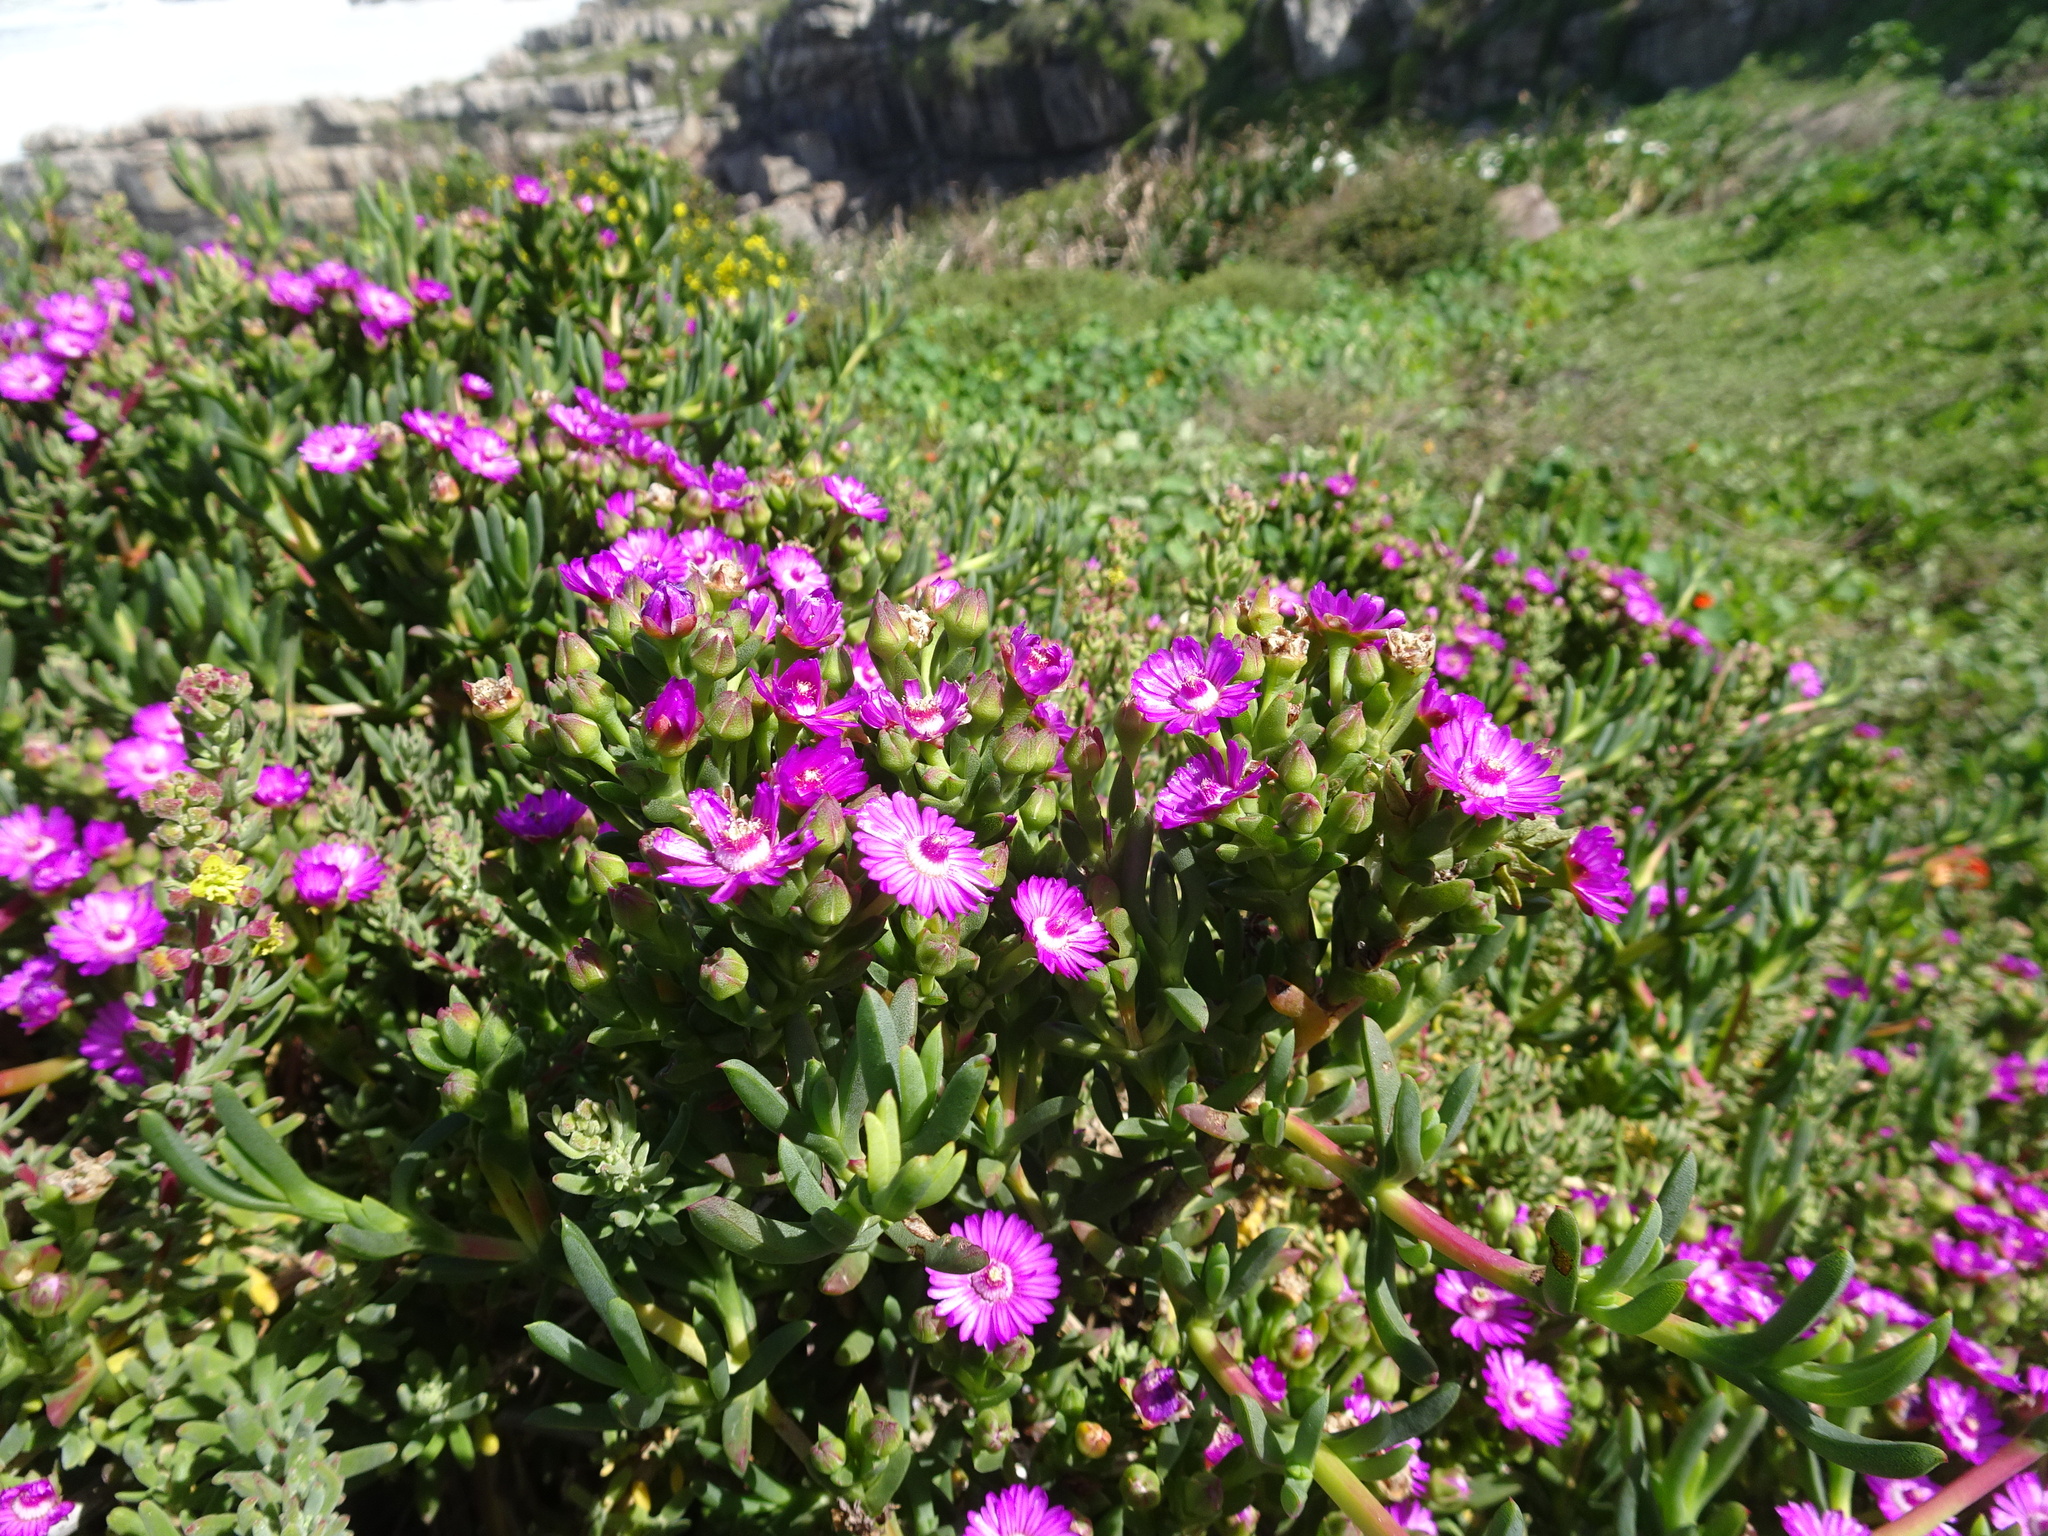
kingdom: Plantae
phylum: Tracheophyta
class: Magnoliopsida
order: Caryophyllales
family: Aizoaceae
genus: Ruschia
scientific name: Ruschia macowanii
